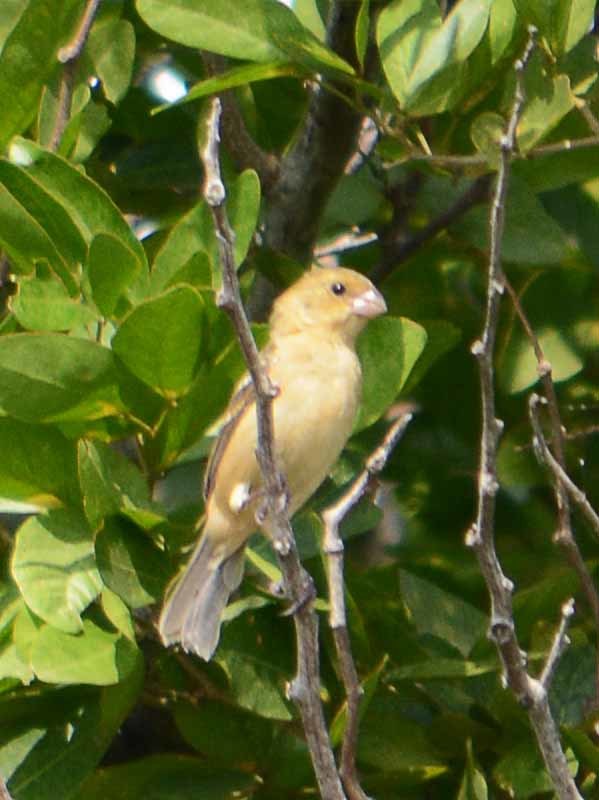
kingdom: Animalia
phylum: Chordata
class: Aves
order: Passeriformes
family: Thraupidae
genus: Sporophila
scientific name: Sporophila morelleti
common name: Morelet's seedeater
